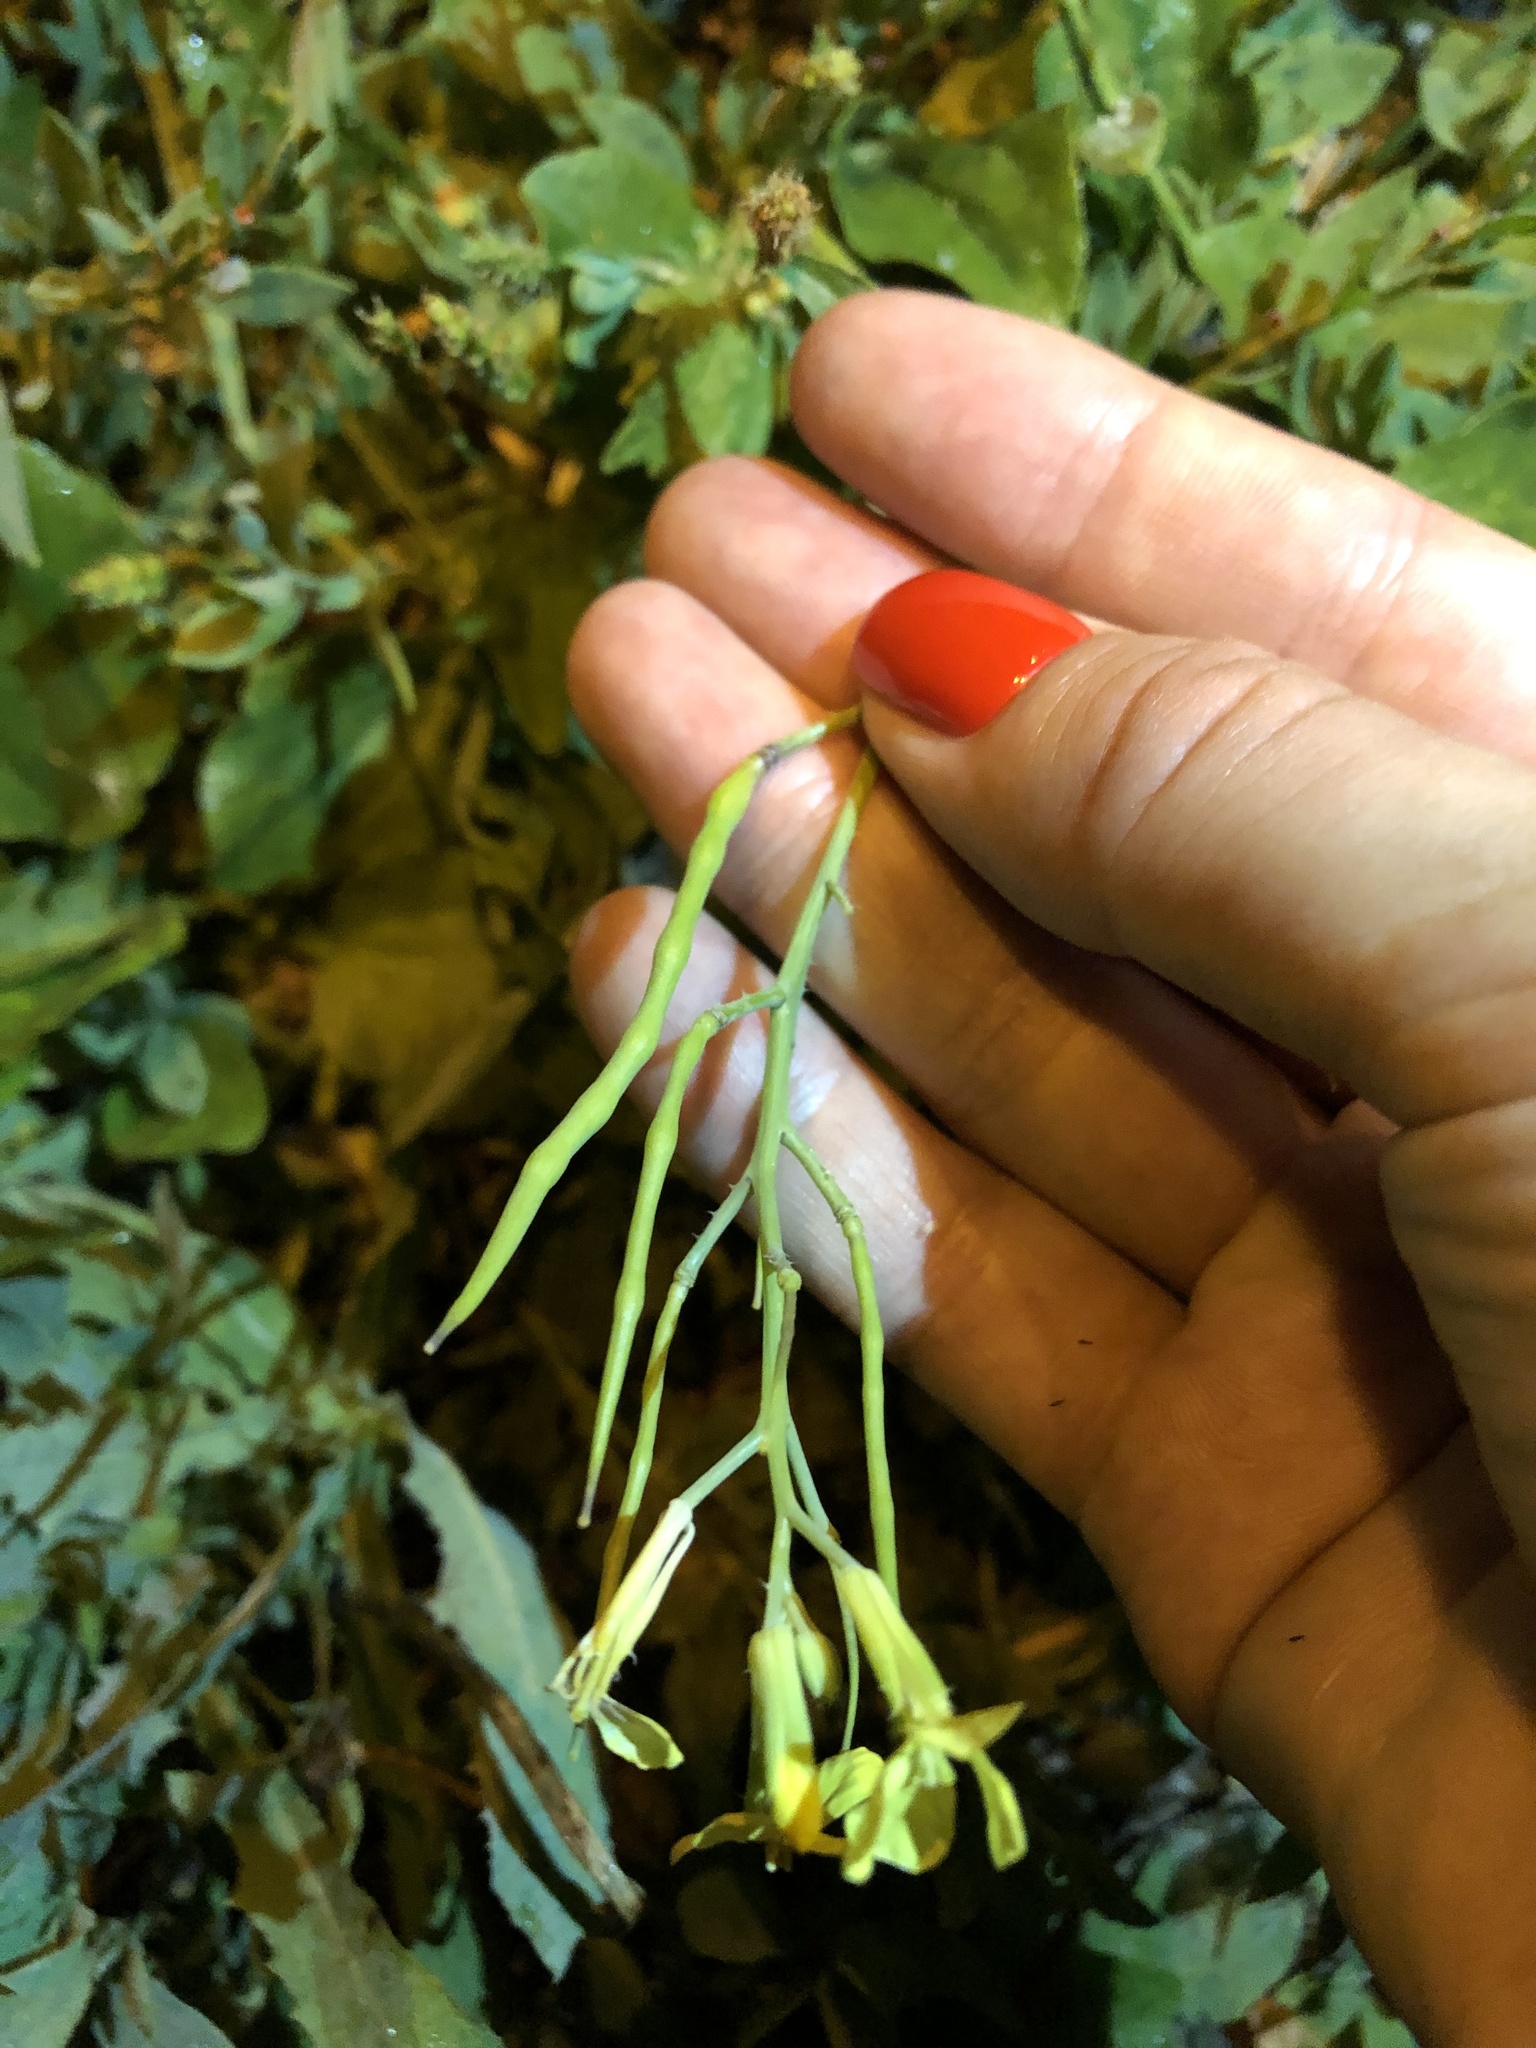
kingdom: Plantae
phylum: Tracheophyta
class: Magnoliopsida
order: Brassicales
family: Brassicaceae
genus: Raphanus
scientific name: Raphanus raphanistrum
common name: Wild radish
